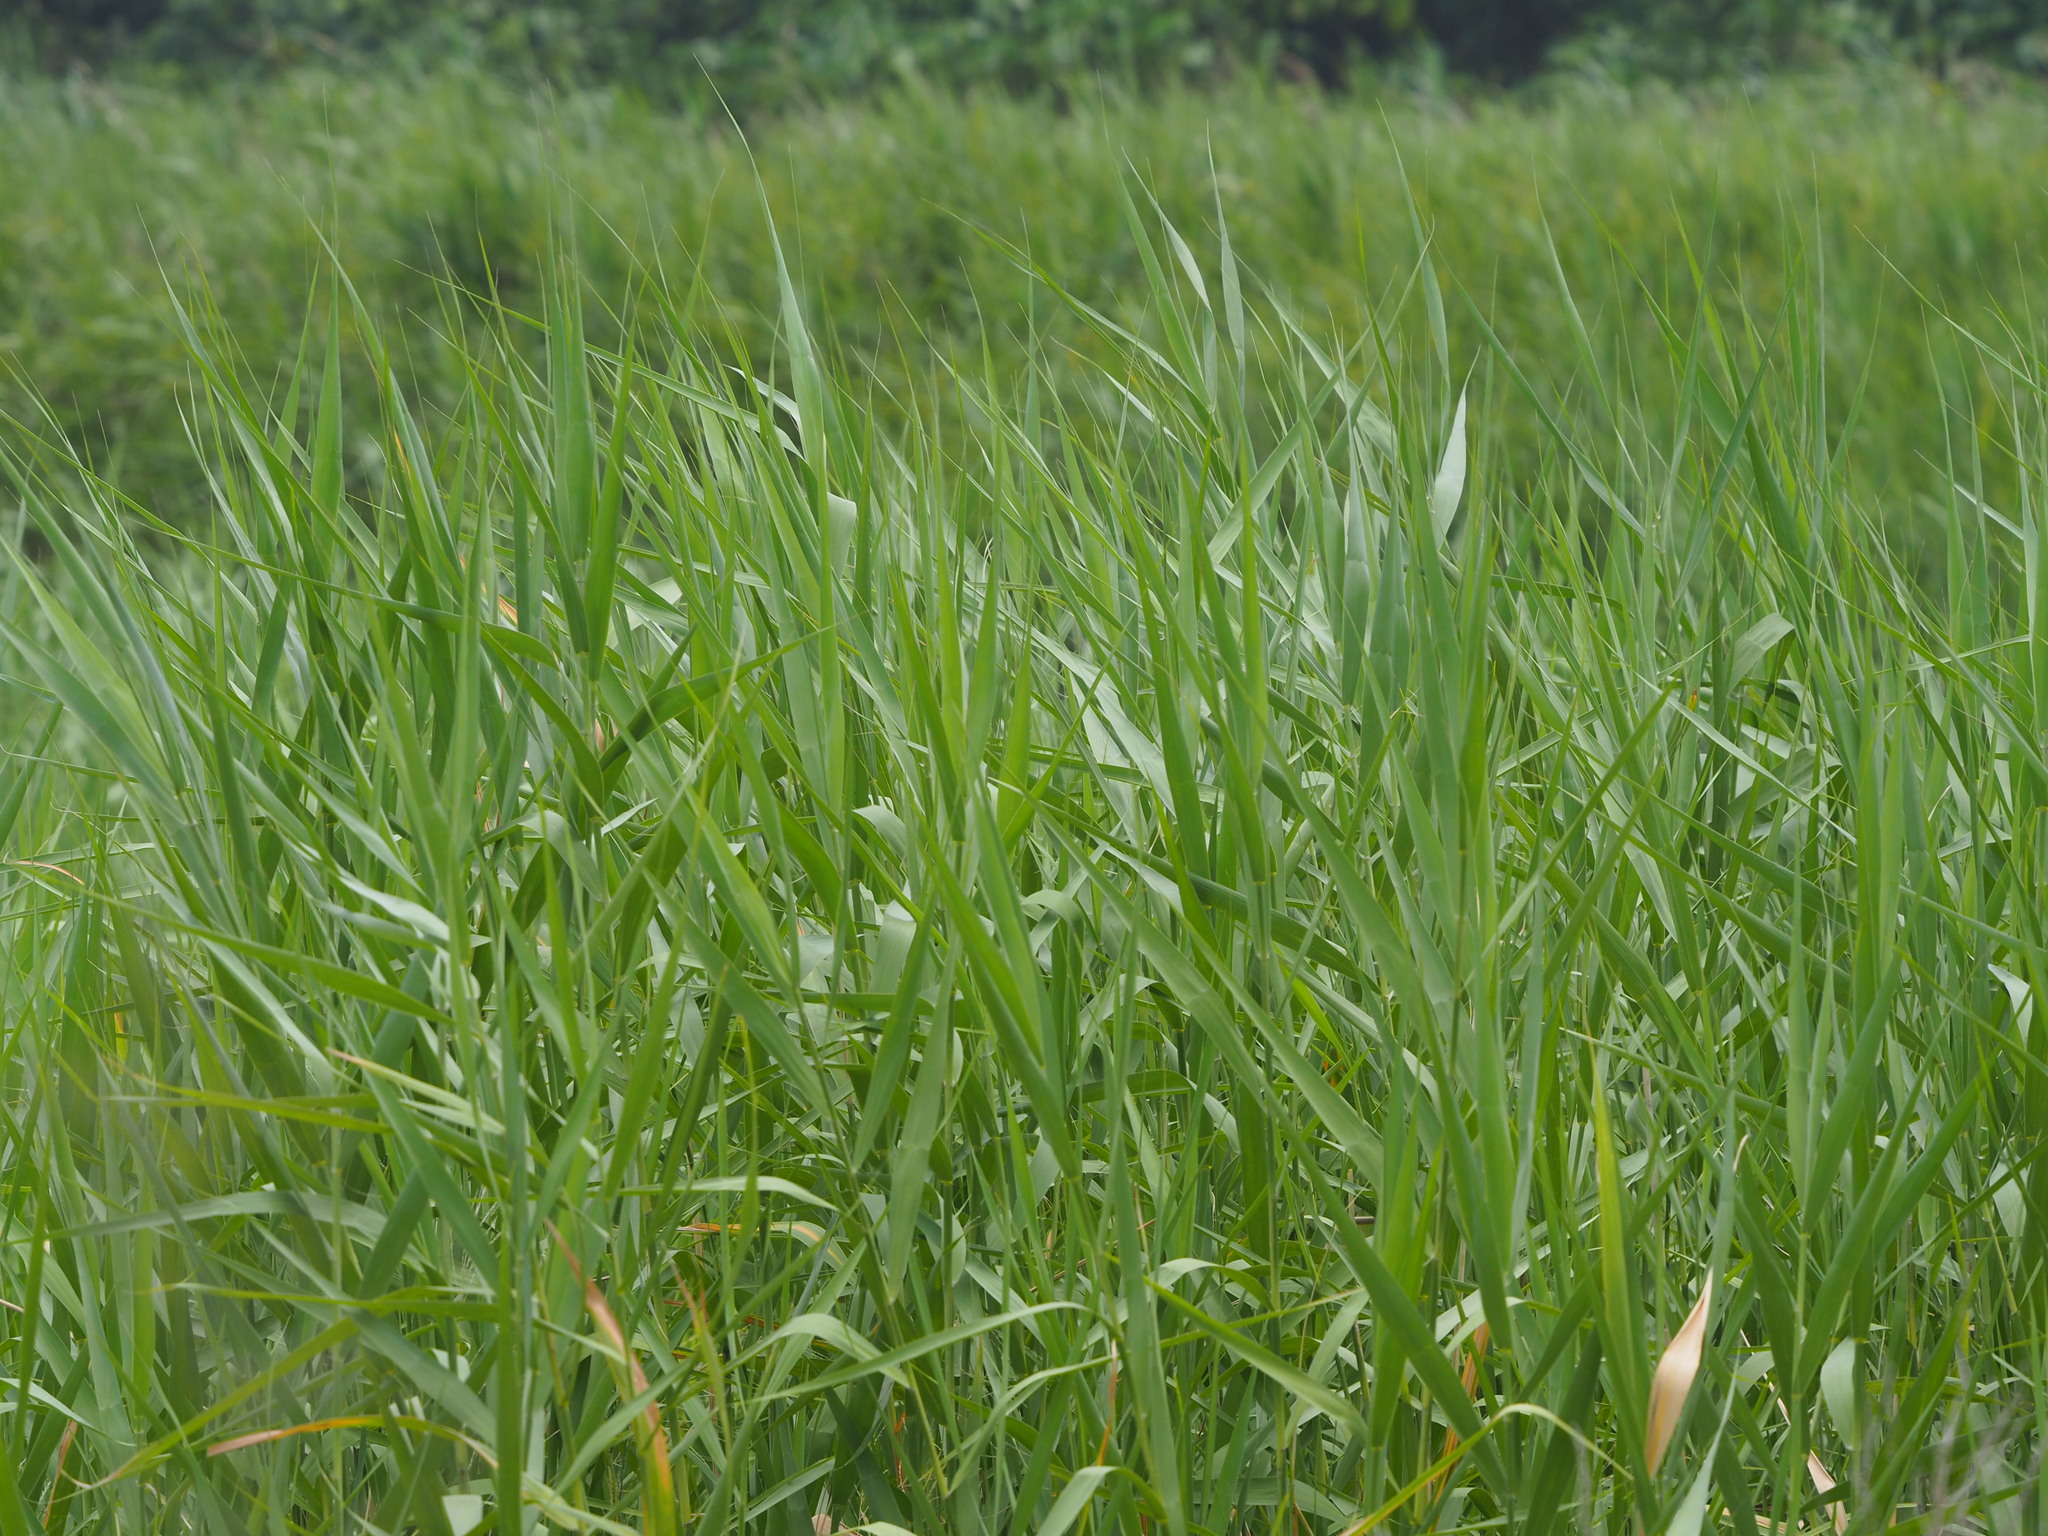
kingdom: Plantae
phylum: Tracheophyta
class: Liliopsida
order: Poales
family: Poaceae
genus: Phragmites
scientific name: Phragmites australis
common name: Common reed
